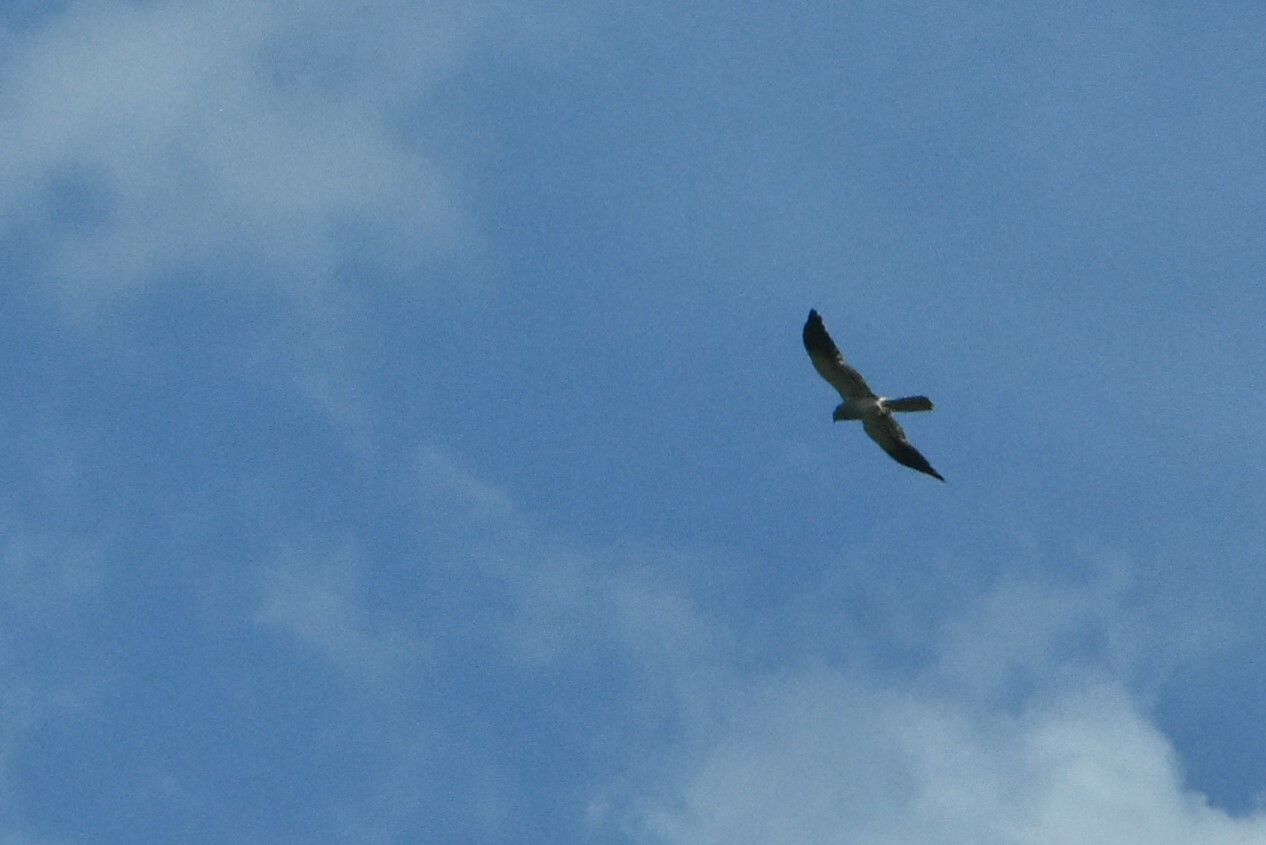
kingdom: Animalia
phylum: Chordata
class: Aves
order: Accipitriformes
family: Accipitridae
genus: Circus
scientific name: Circus pygargus
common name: Montagu's harrier
